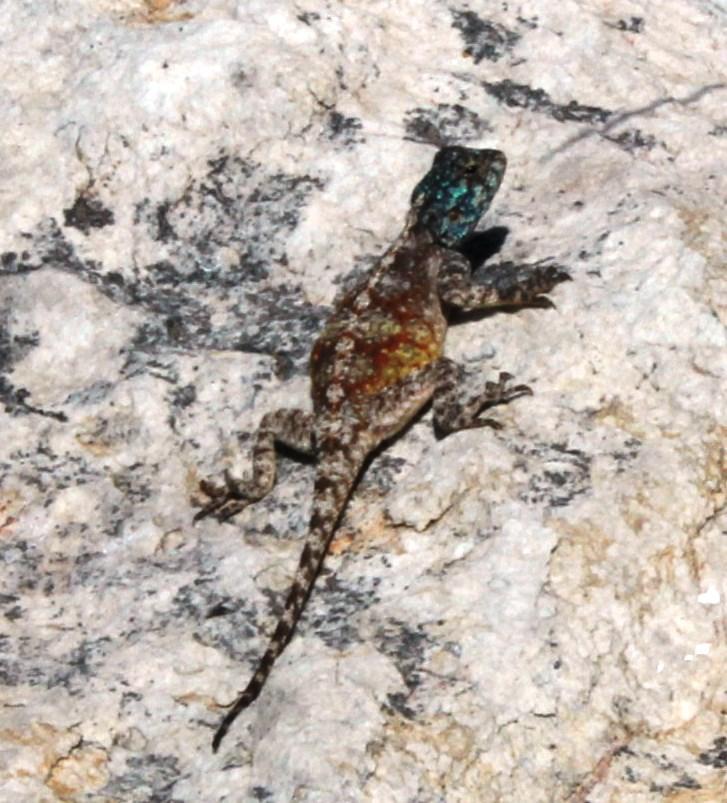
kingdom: Animalia
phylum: Chordata
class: Squamata
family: Agamidae
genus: Agama
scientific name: Agama atra
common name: Southern african rock agama
